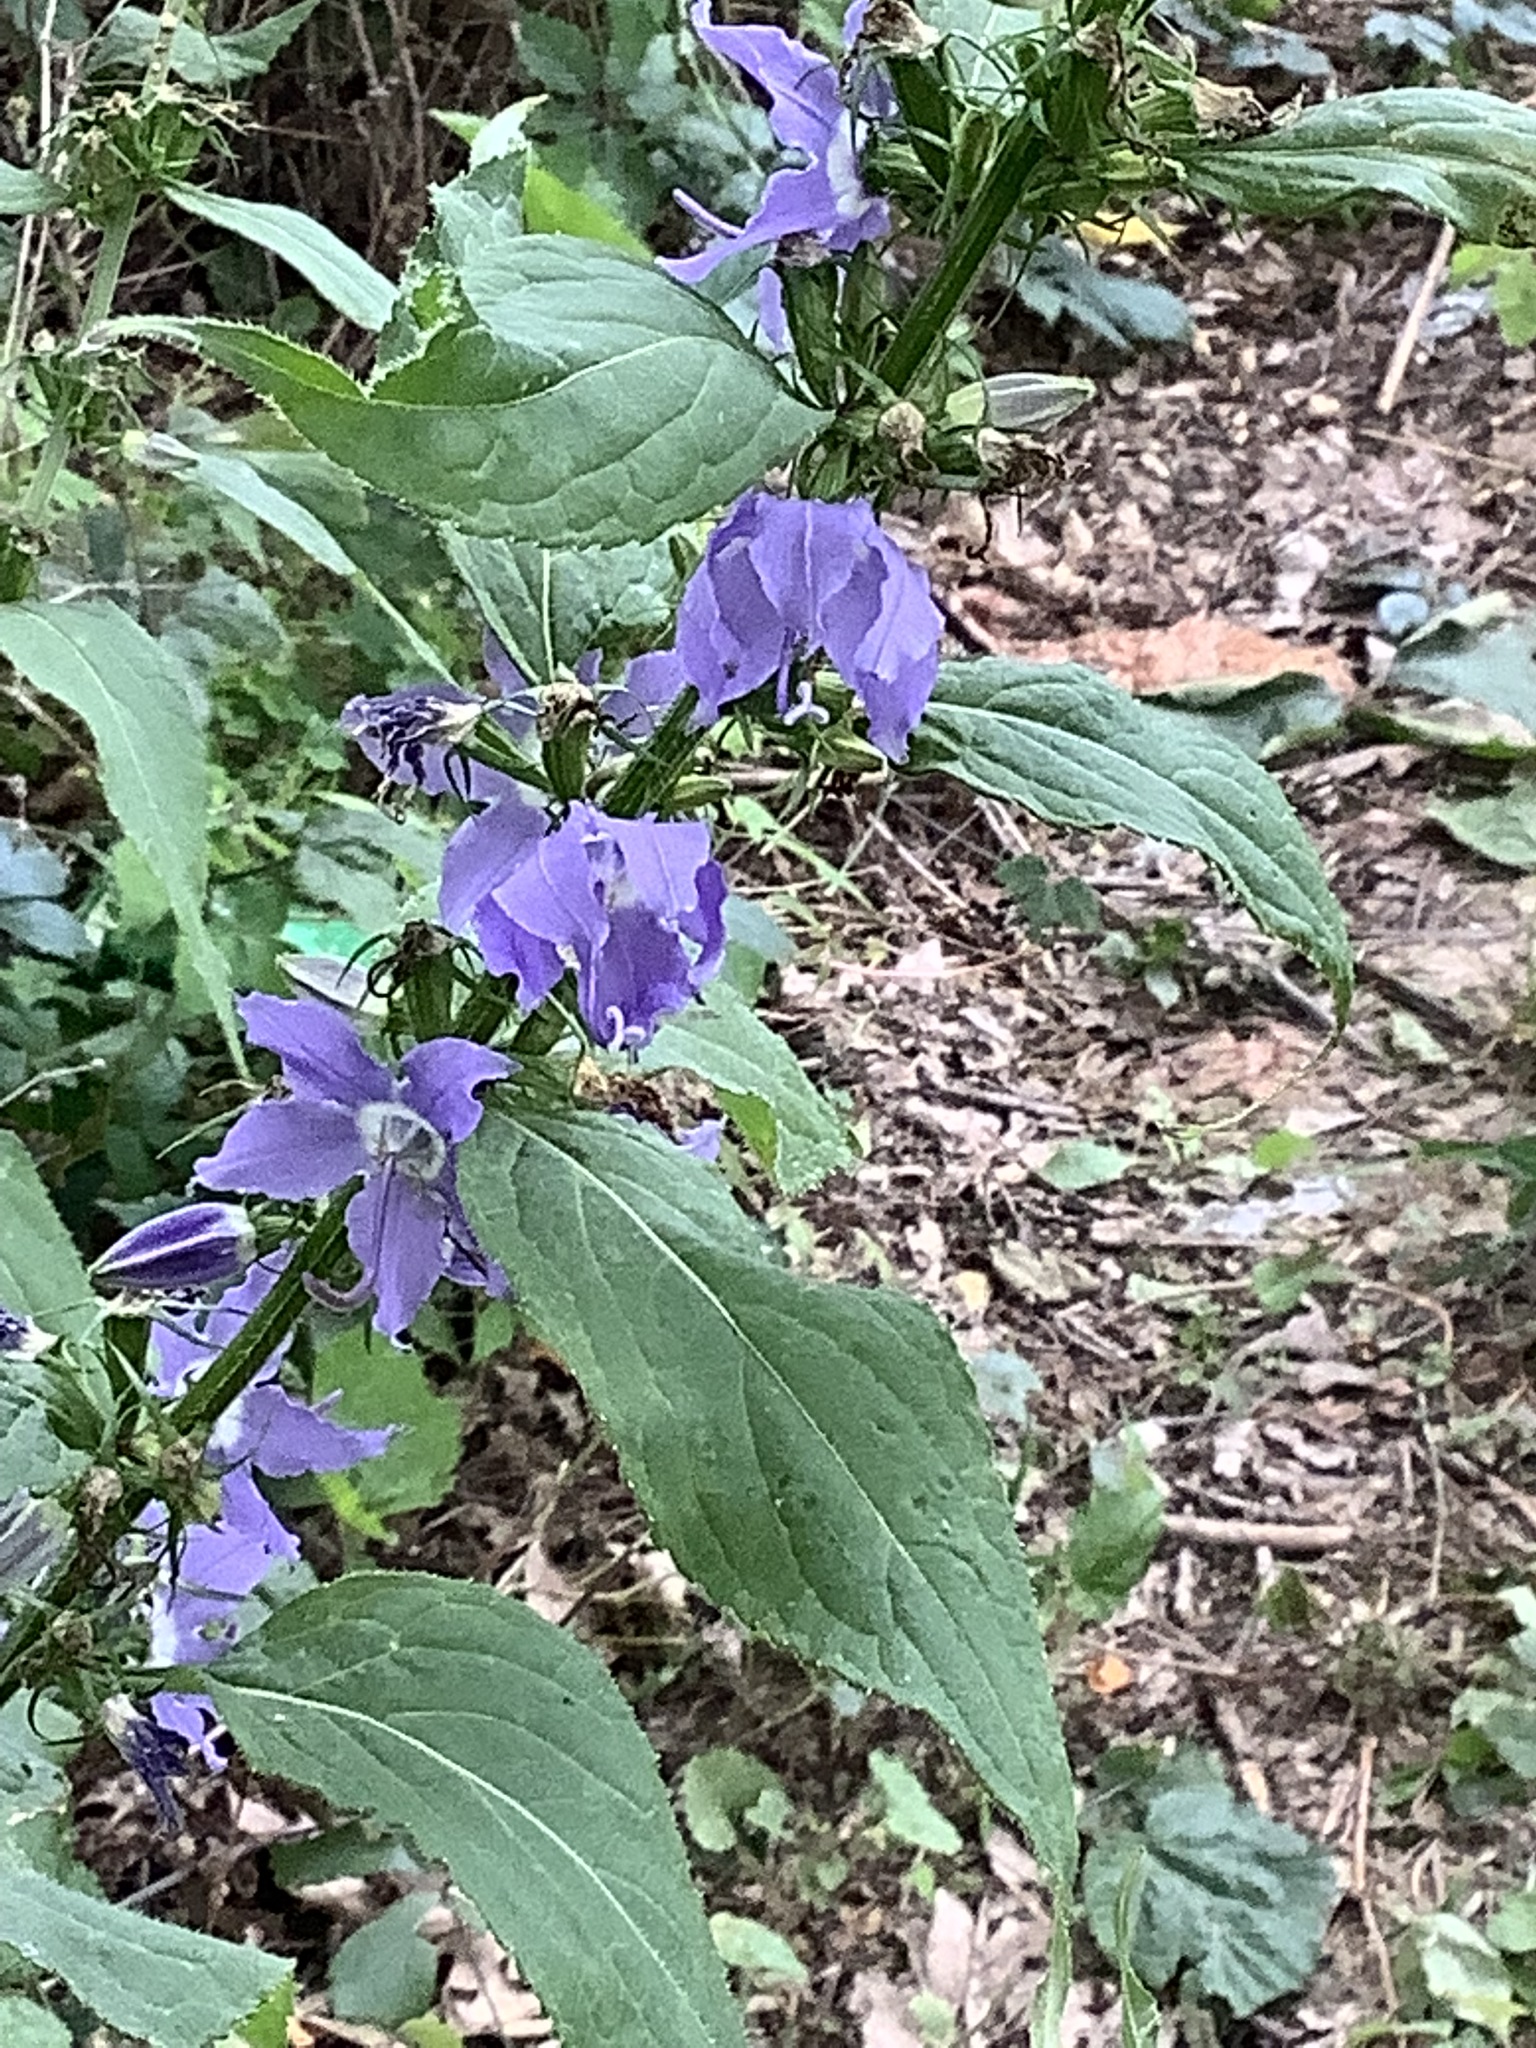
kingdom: Plantae
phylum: Tracheophyta
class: Magnoliopsida
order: Asterales
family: Campanulaceae
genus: Campanulastrum
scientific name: Campanulastrum americanum
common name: American bellflower
